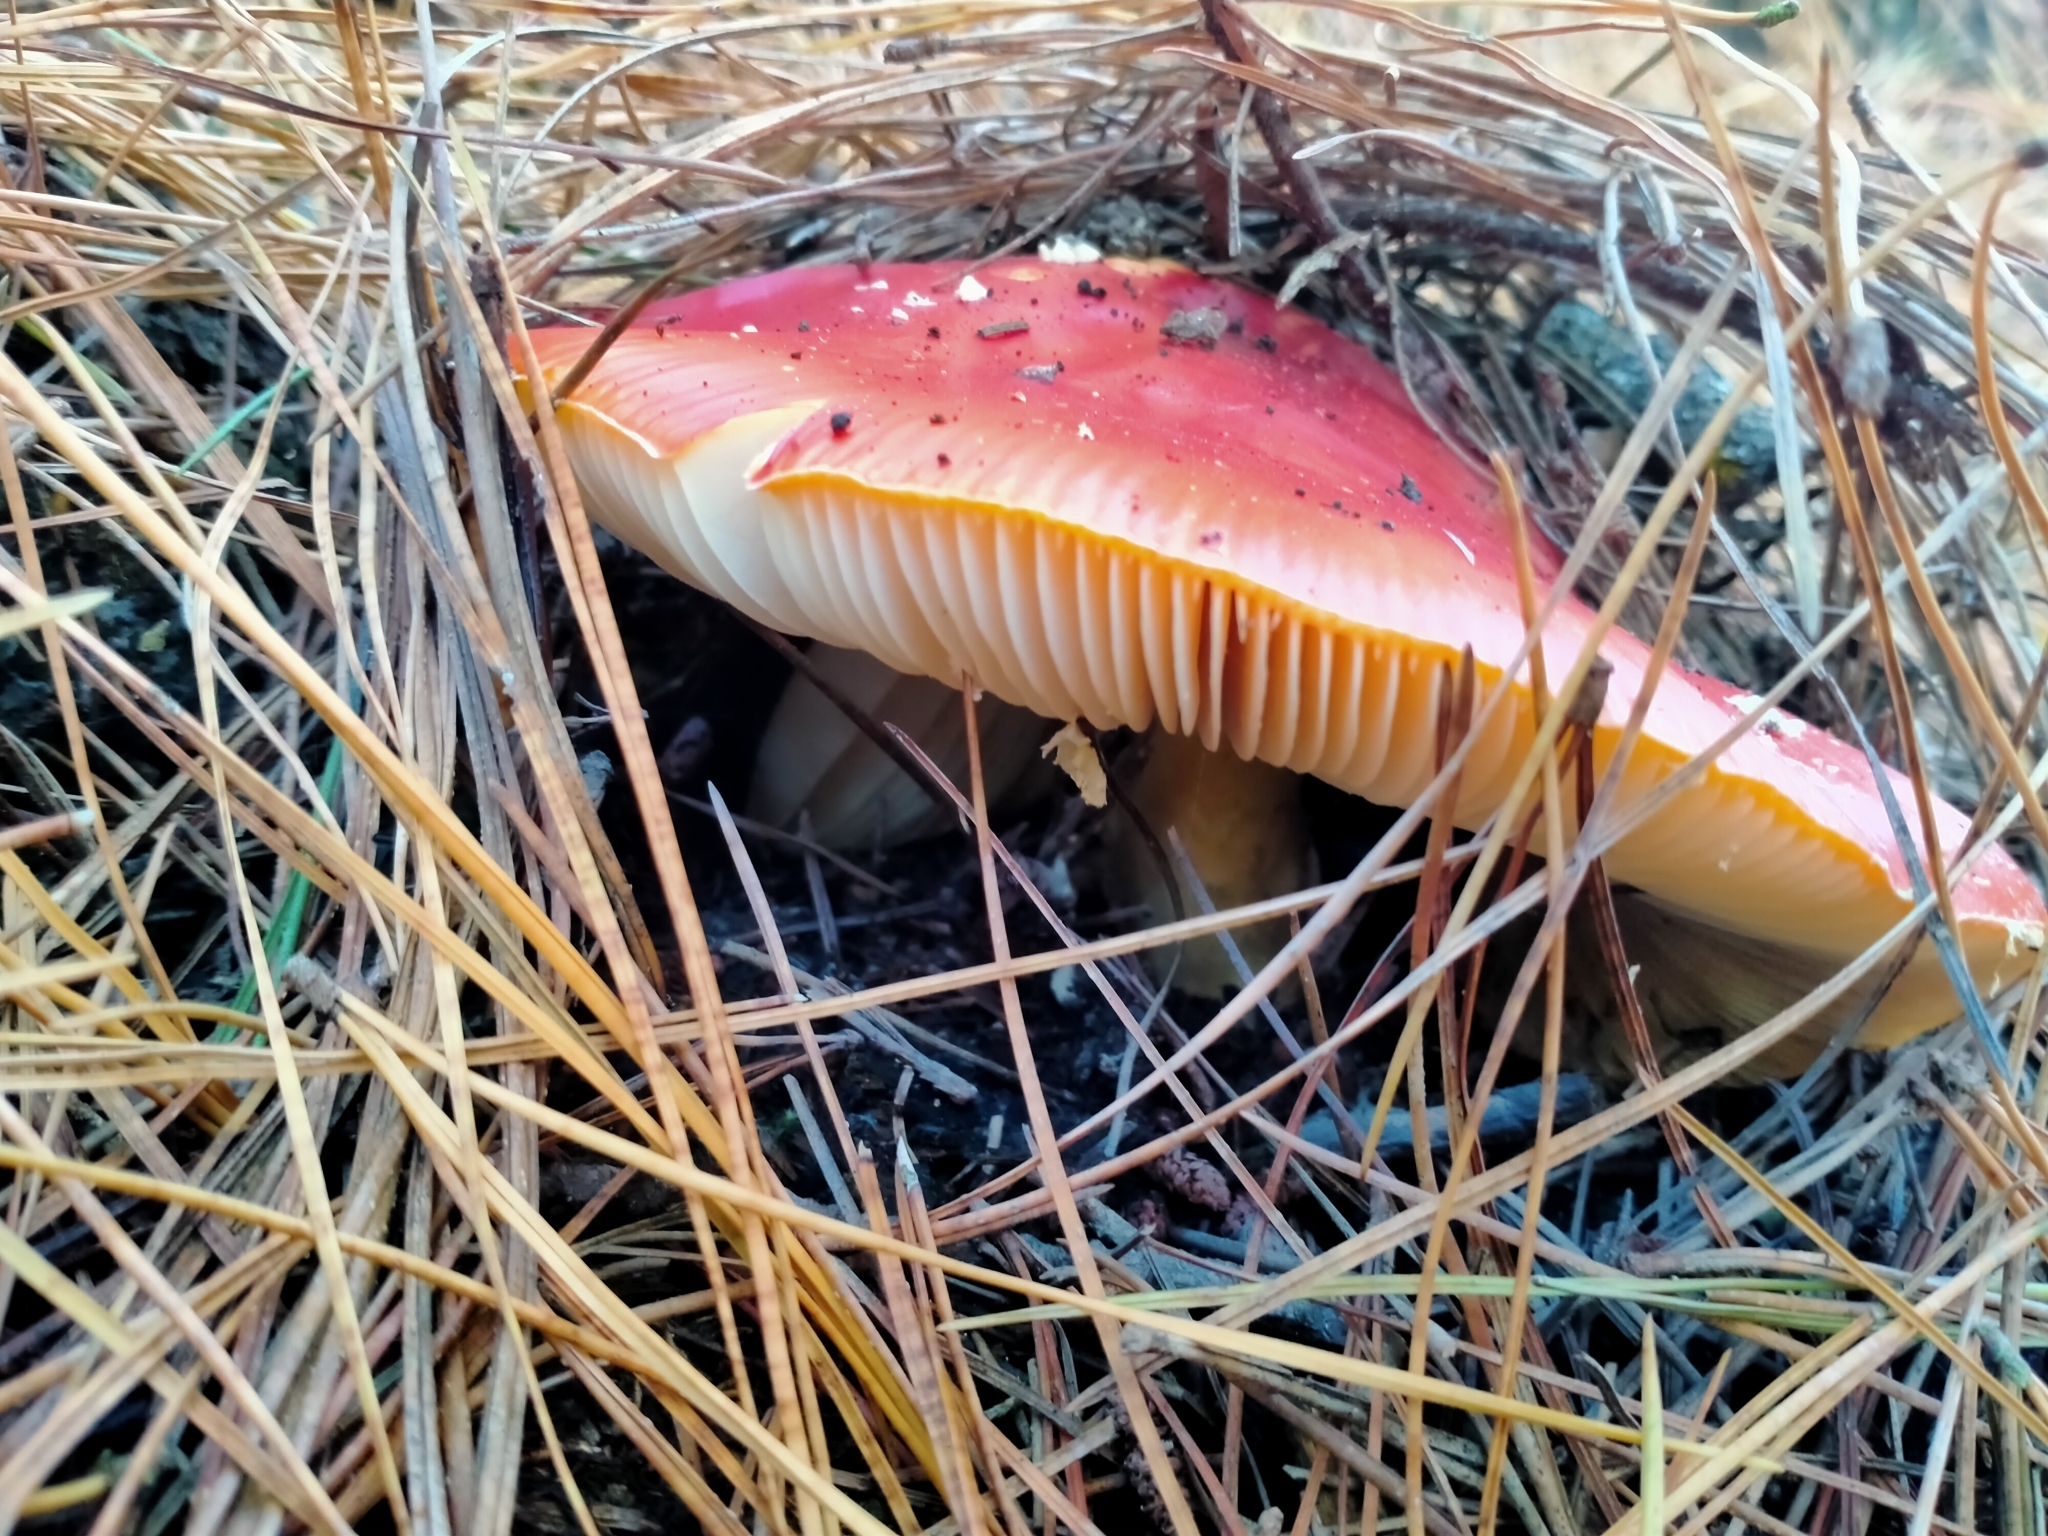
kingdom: Fungi
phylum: Basidiomycota
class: Agaricomycetes
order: Agaricales
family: Amanitaceae
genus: Amanita
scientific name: Amanita muscaria
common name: Fly agaric
